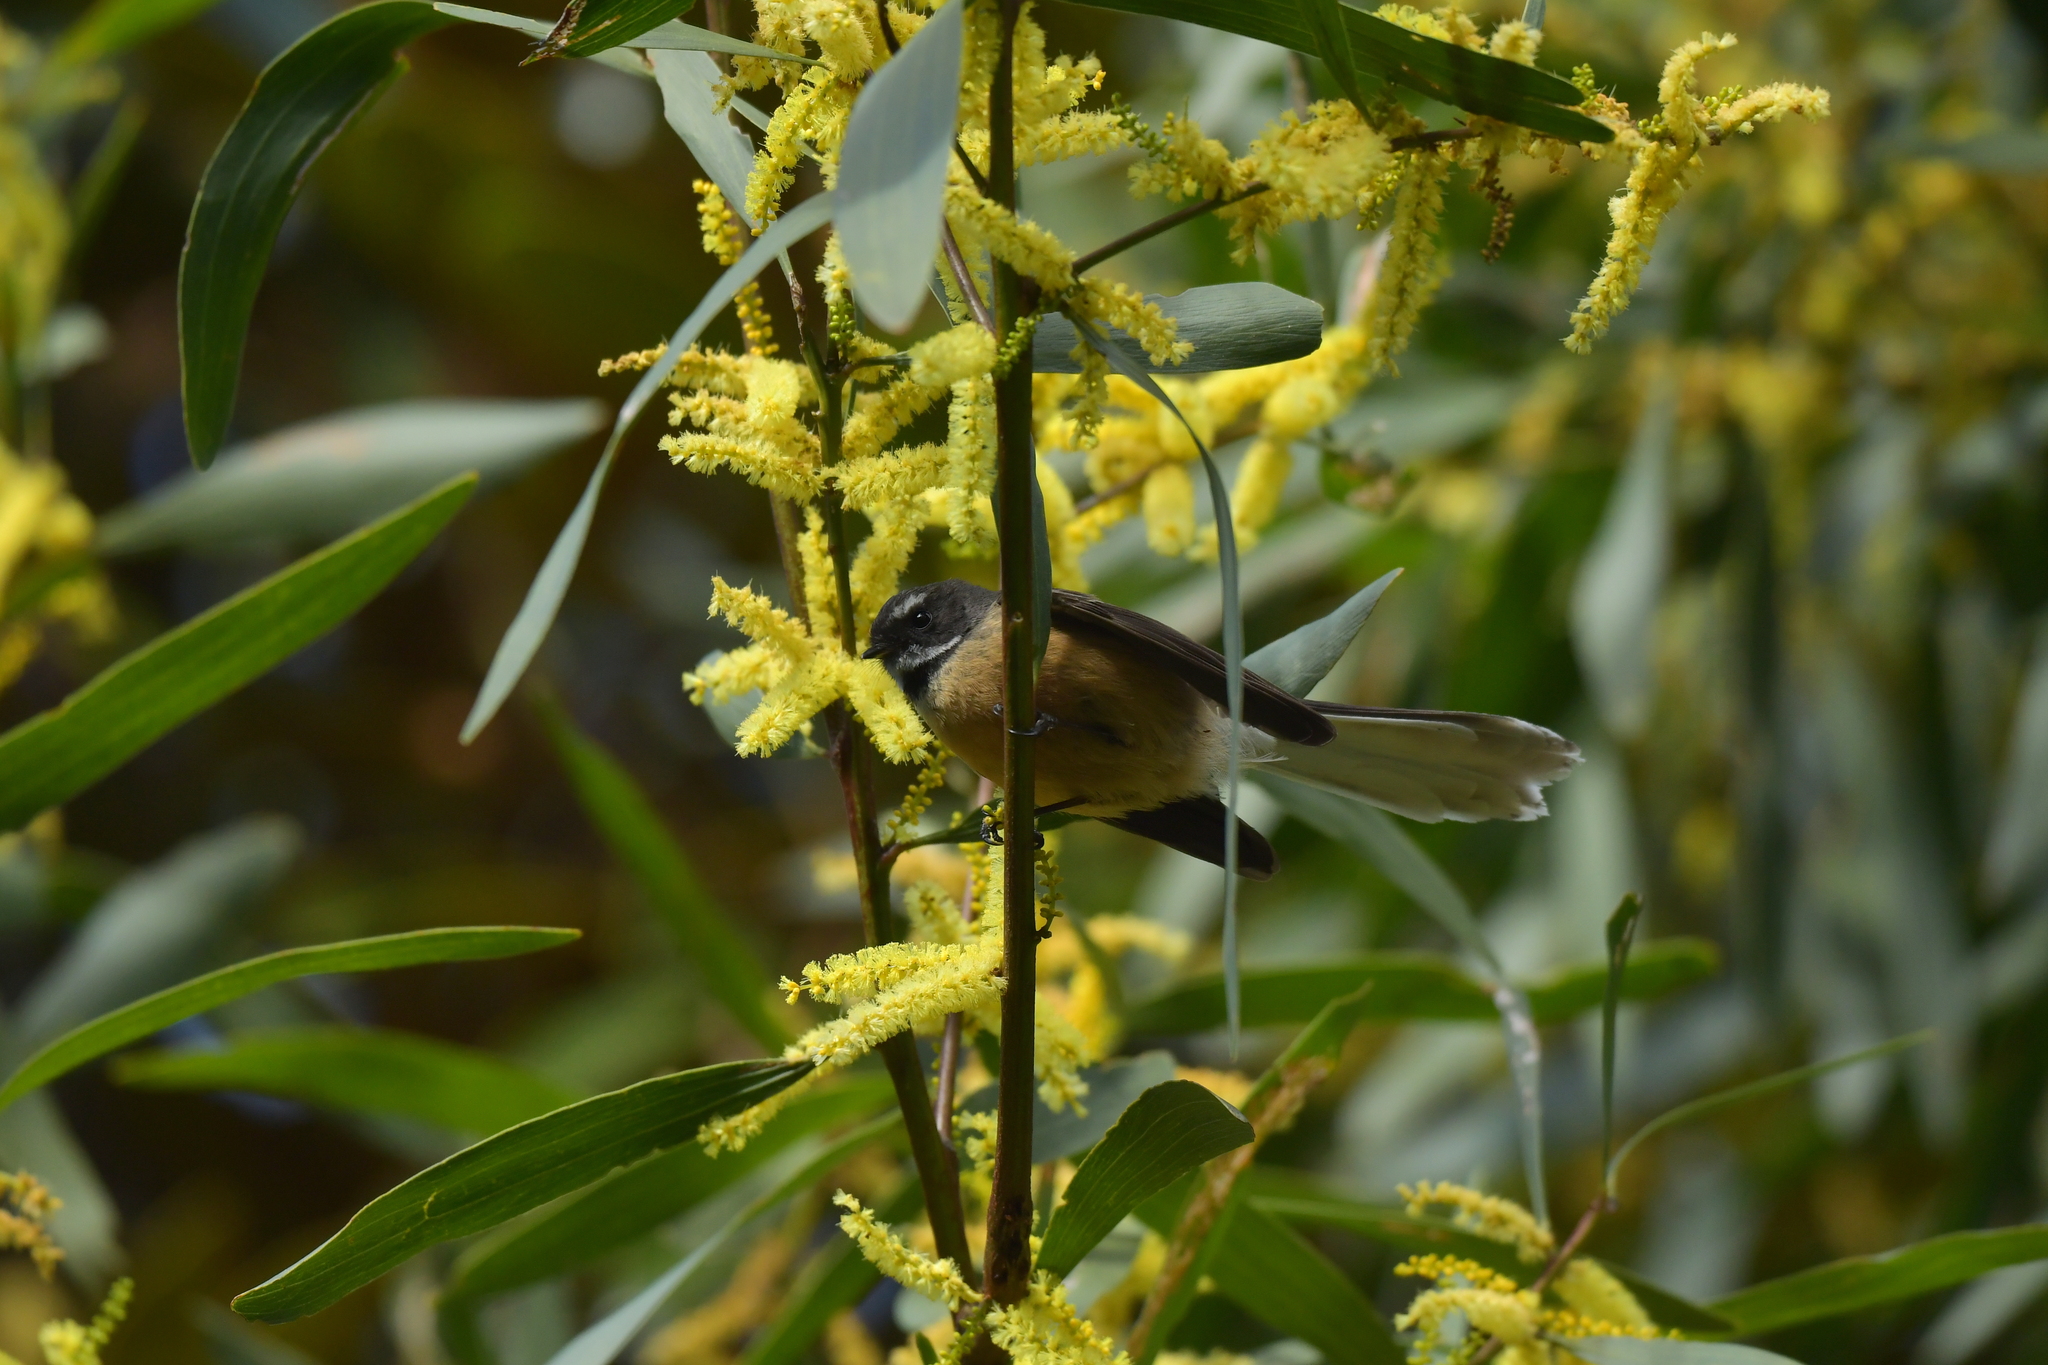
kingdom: Animalia
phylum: Chordata
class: Aves
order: Passeriformes
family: Rhipiduridae
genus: Rhipidura
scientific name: Rhipidura fuliginosa
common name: New zealand fantail
